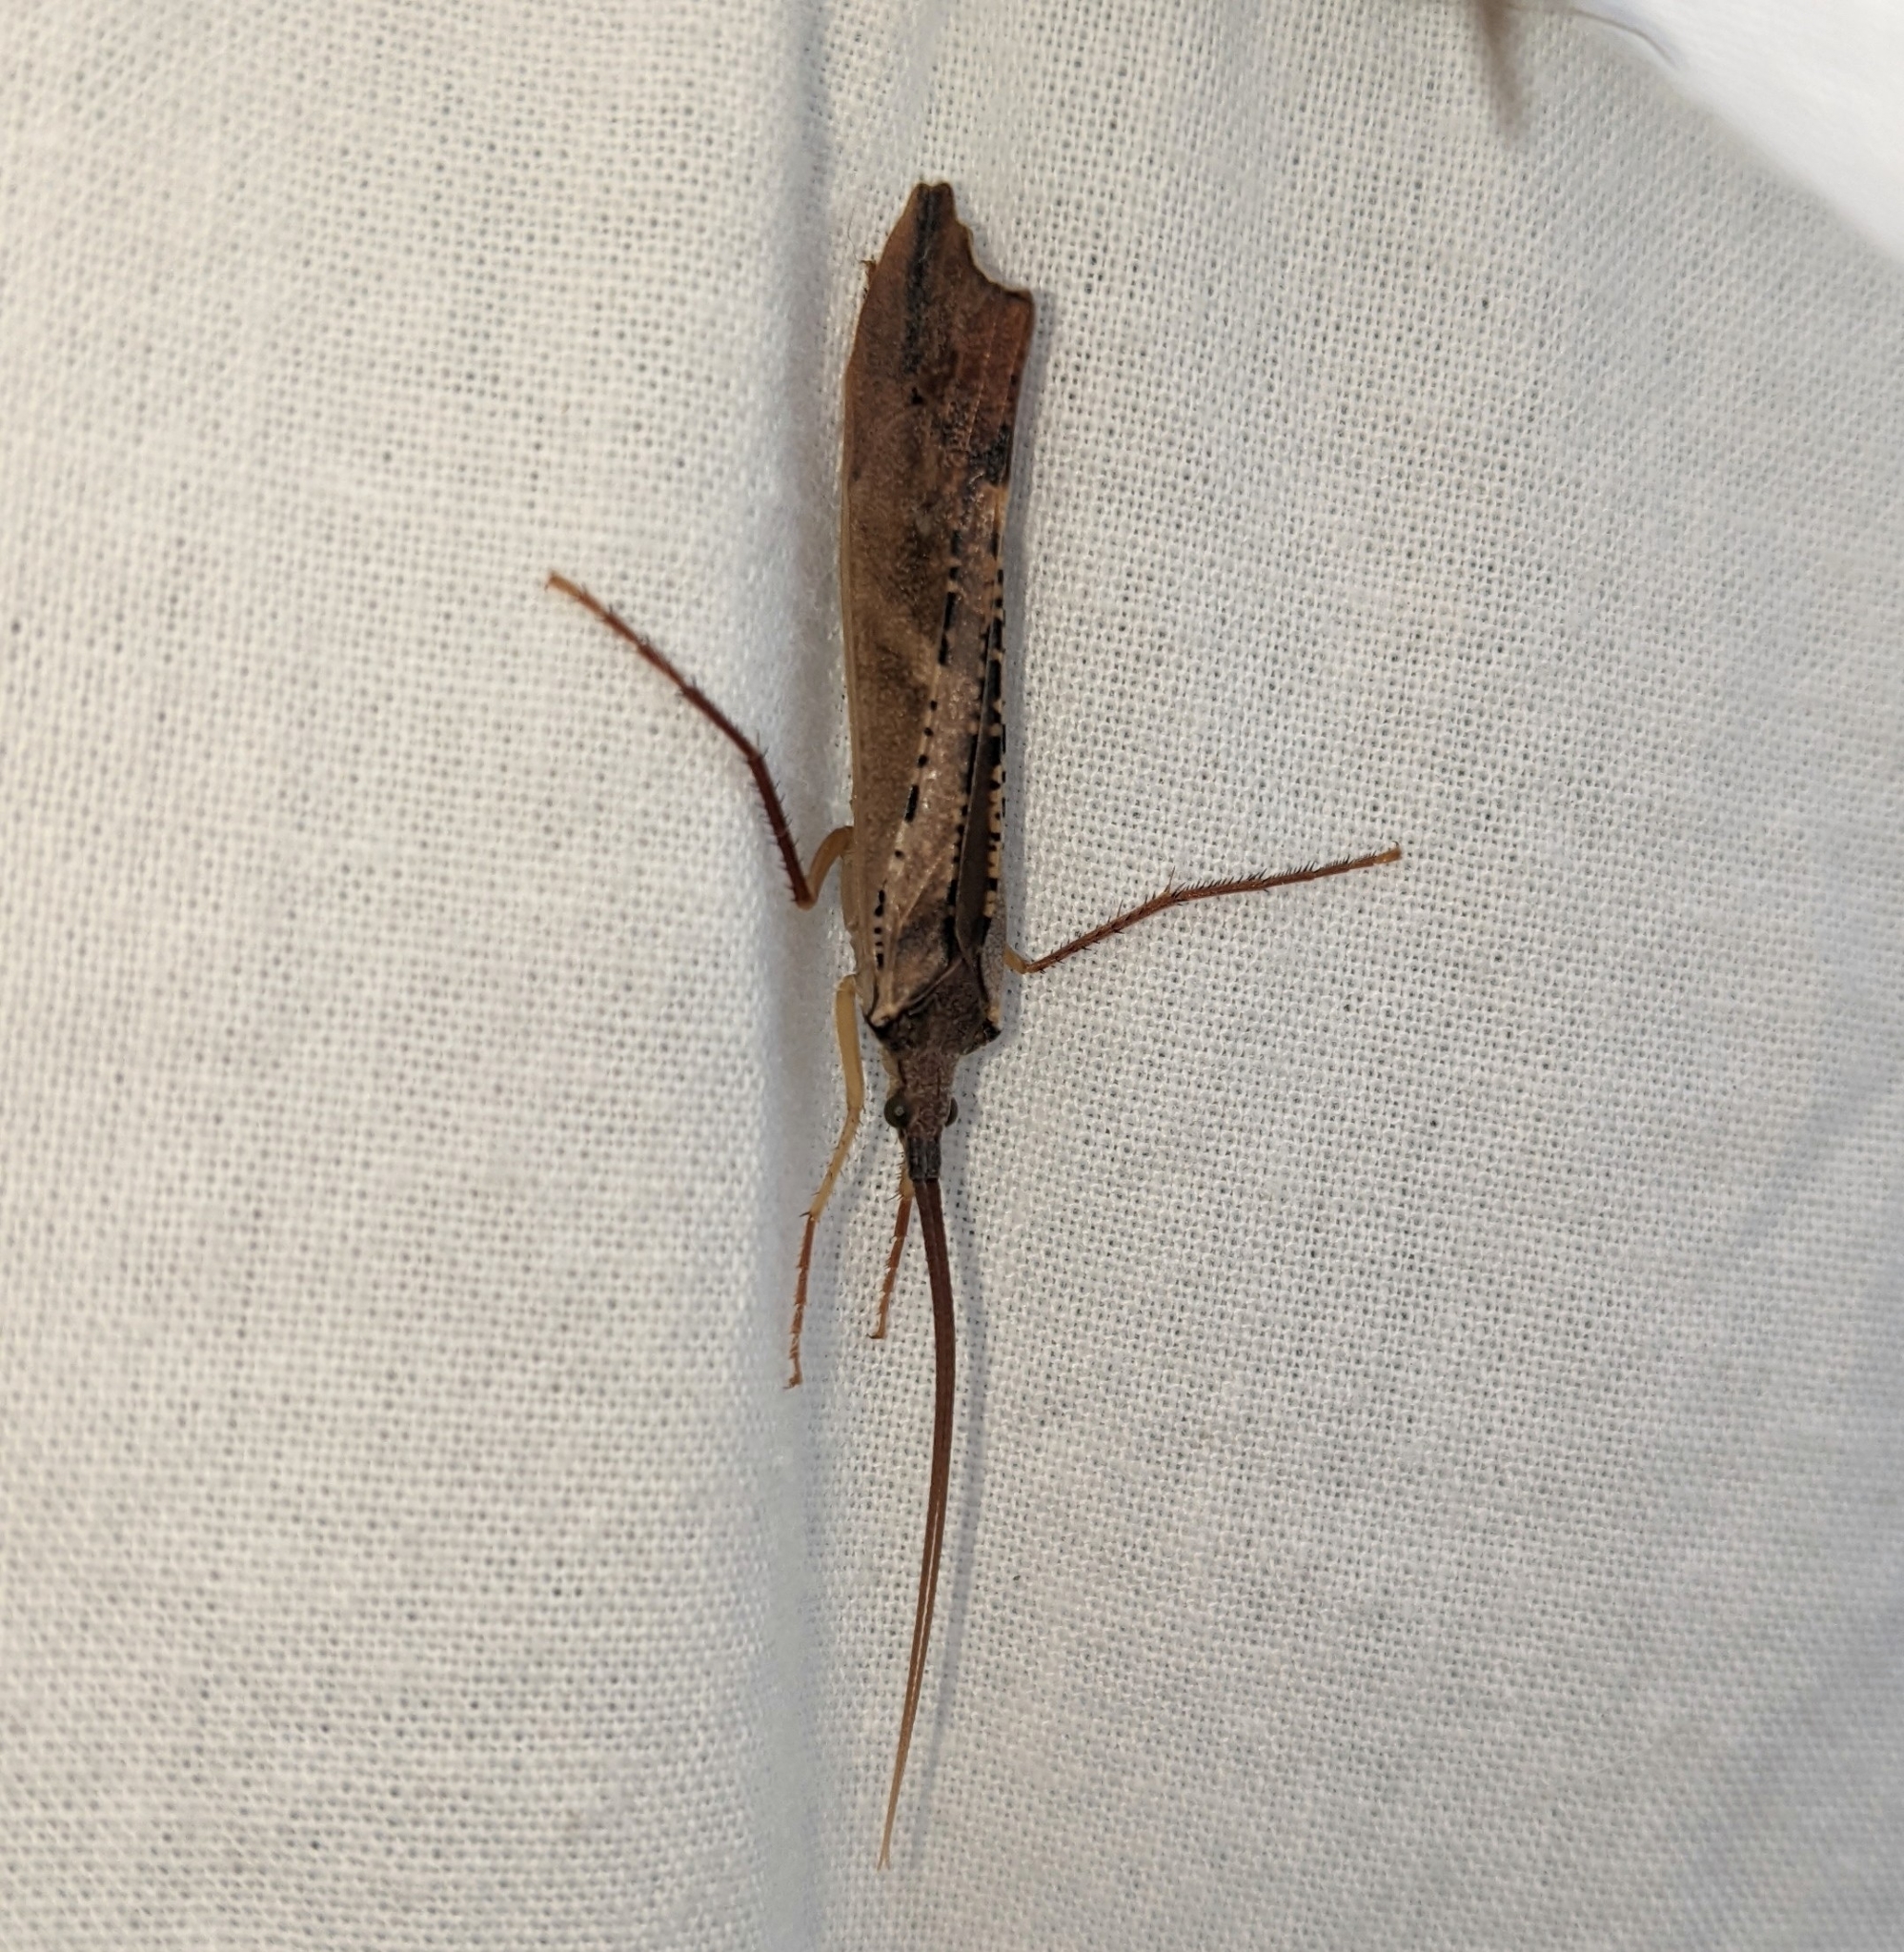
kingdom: Animalia
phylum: Arthropoda
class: Insecta
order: Trichoptera
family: Limnephilidae
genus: Nemotaulius
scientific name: Nemotaulius hostilis
